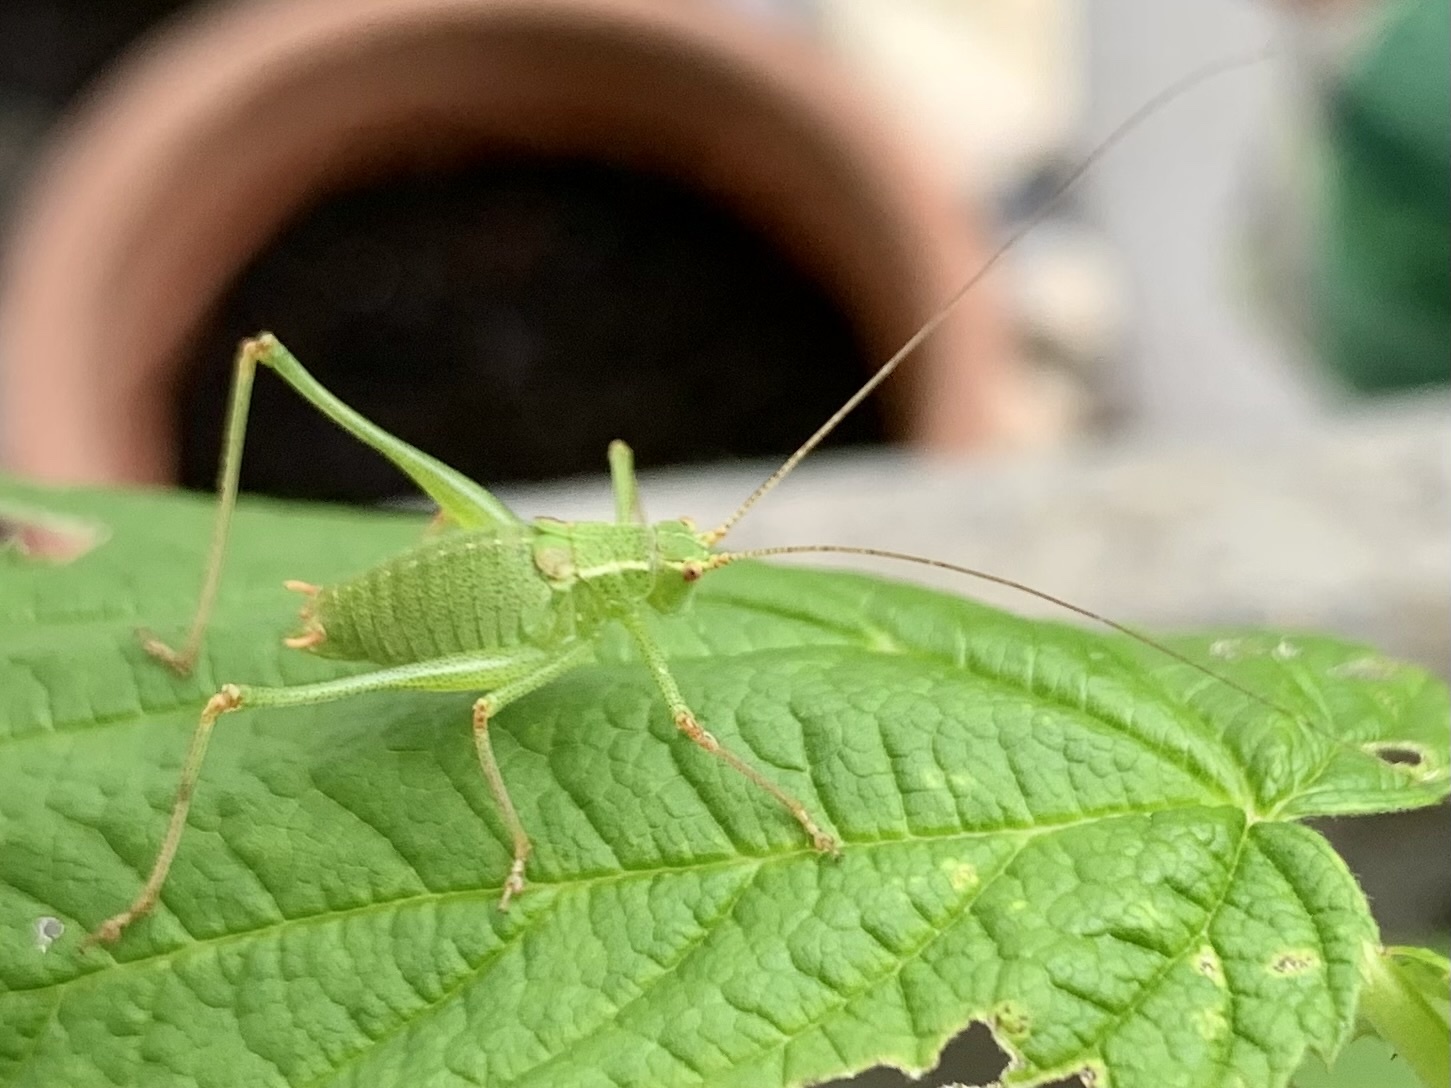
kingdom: Animalia
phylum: Arthropoda
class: Insecta
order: Orthoptera
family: Tettigoniidae
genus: Leptophyes
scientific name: Leptophyes punctatissima
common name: Speckled bush-cricket
